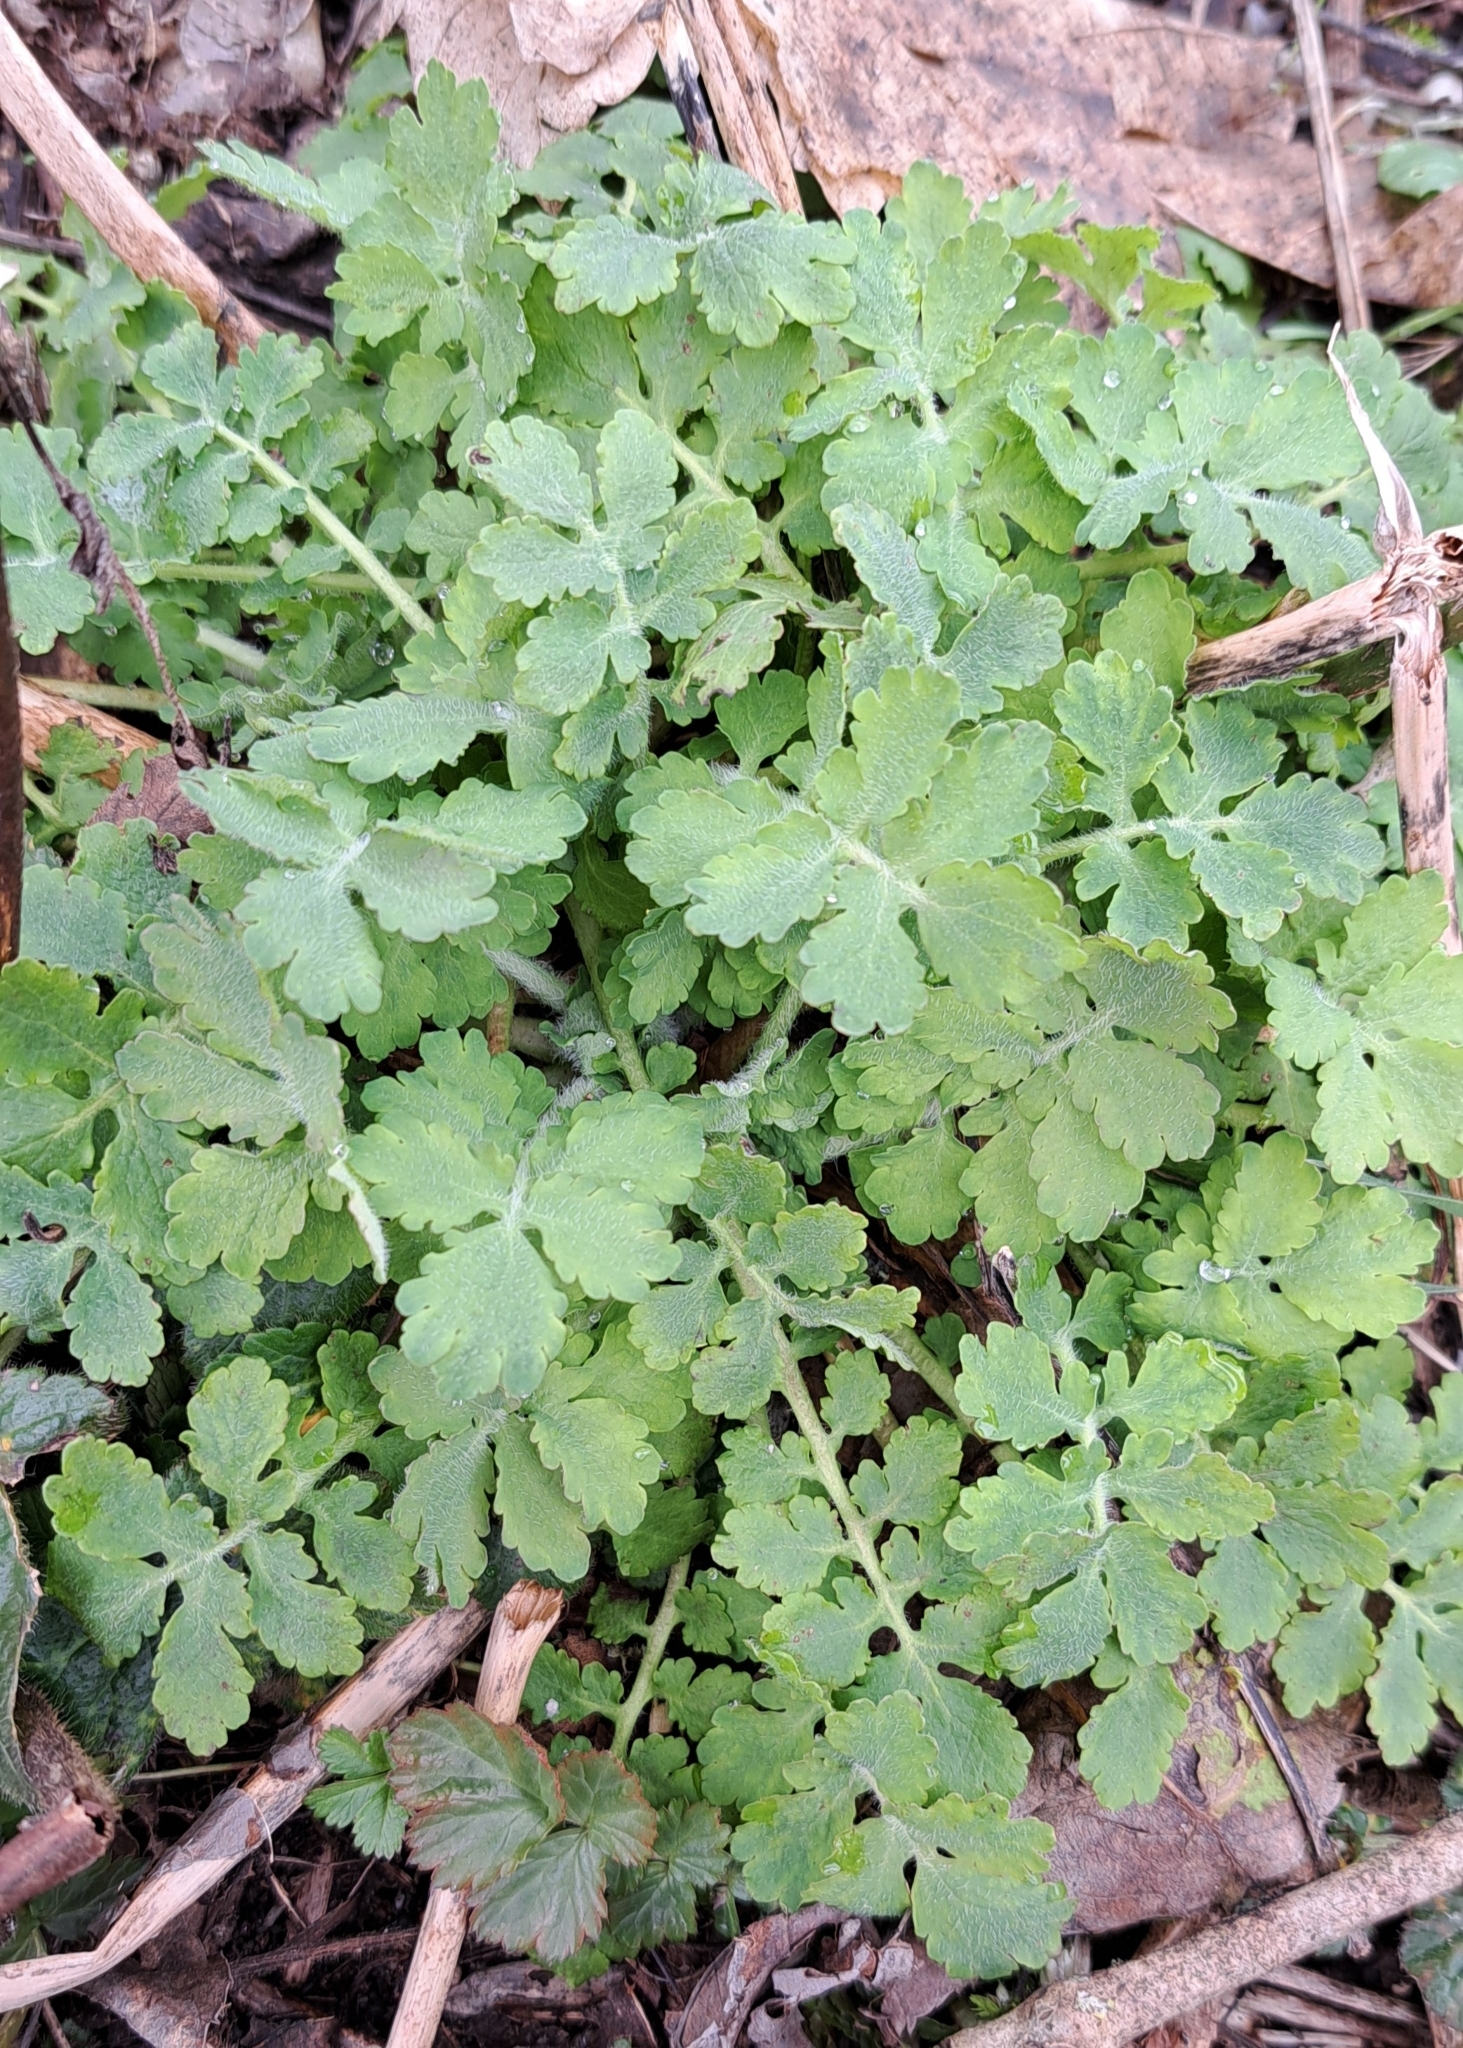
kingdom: Plantae
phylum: Tracheophyta
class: Magnoliopsida
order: Ranunculales
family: Papaveraceae
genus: Chelidonium
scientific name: Chelidonium majus
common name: Greater celandine
